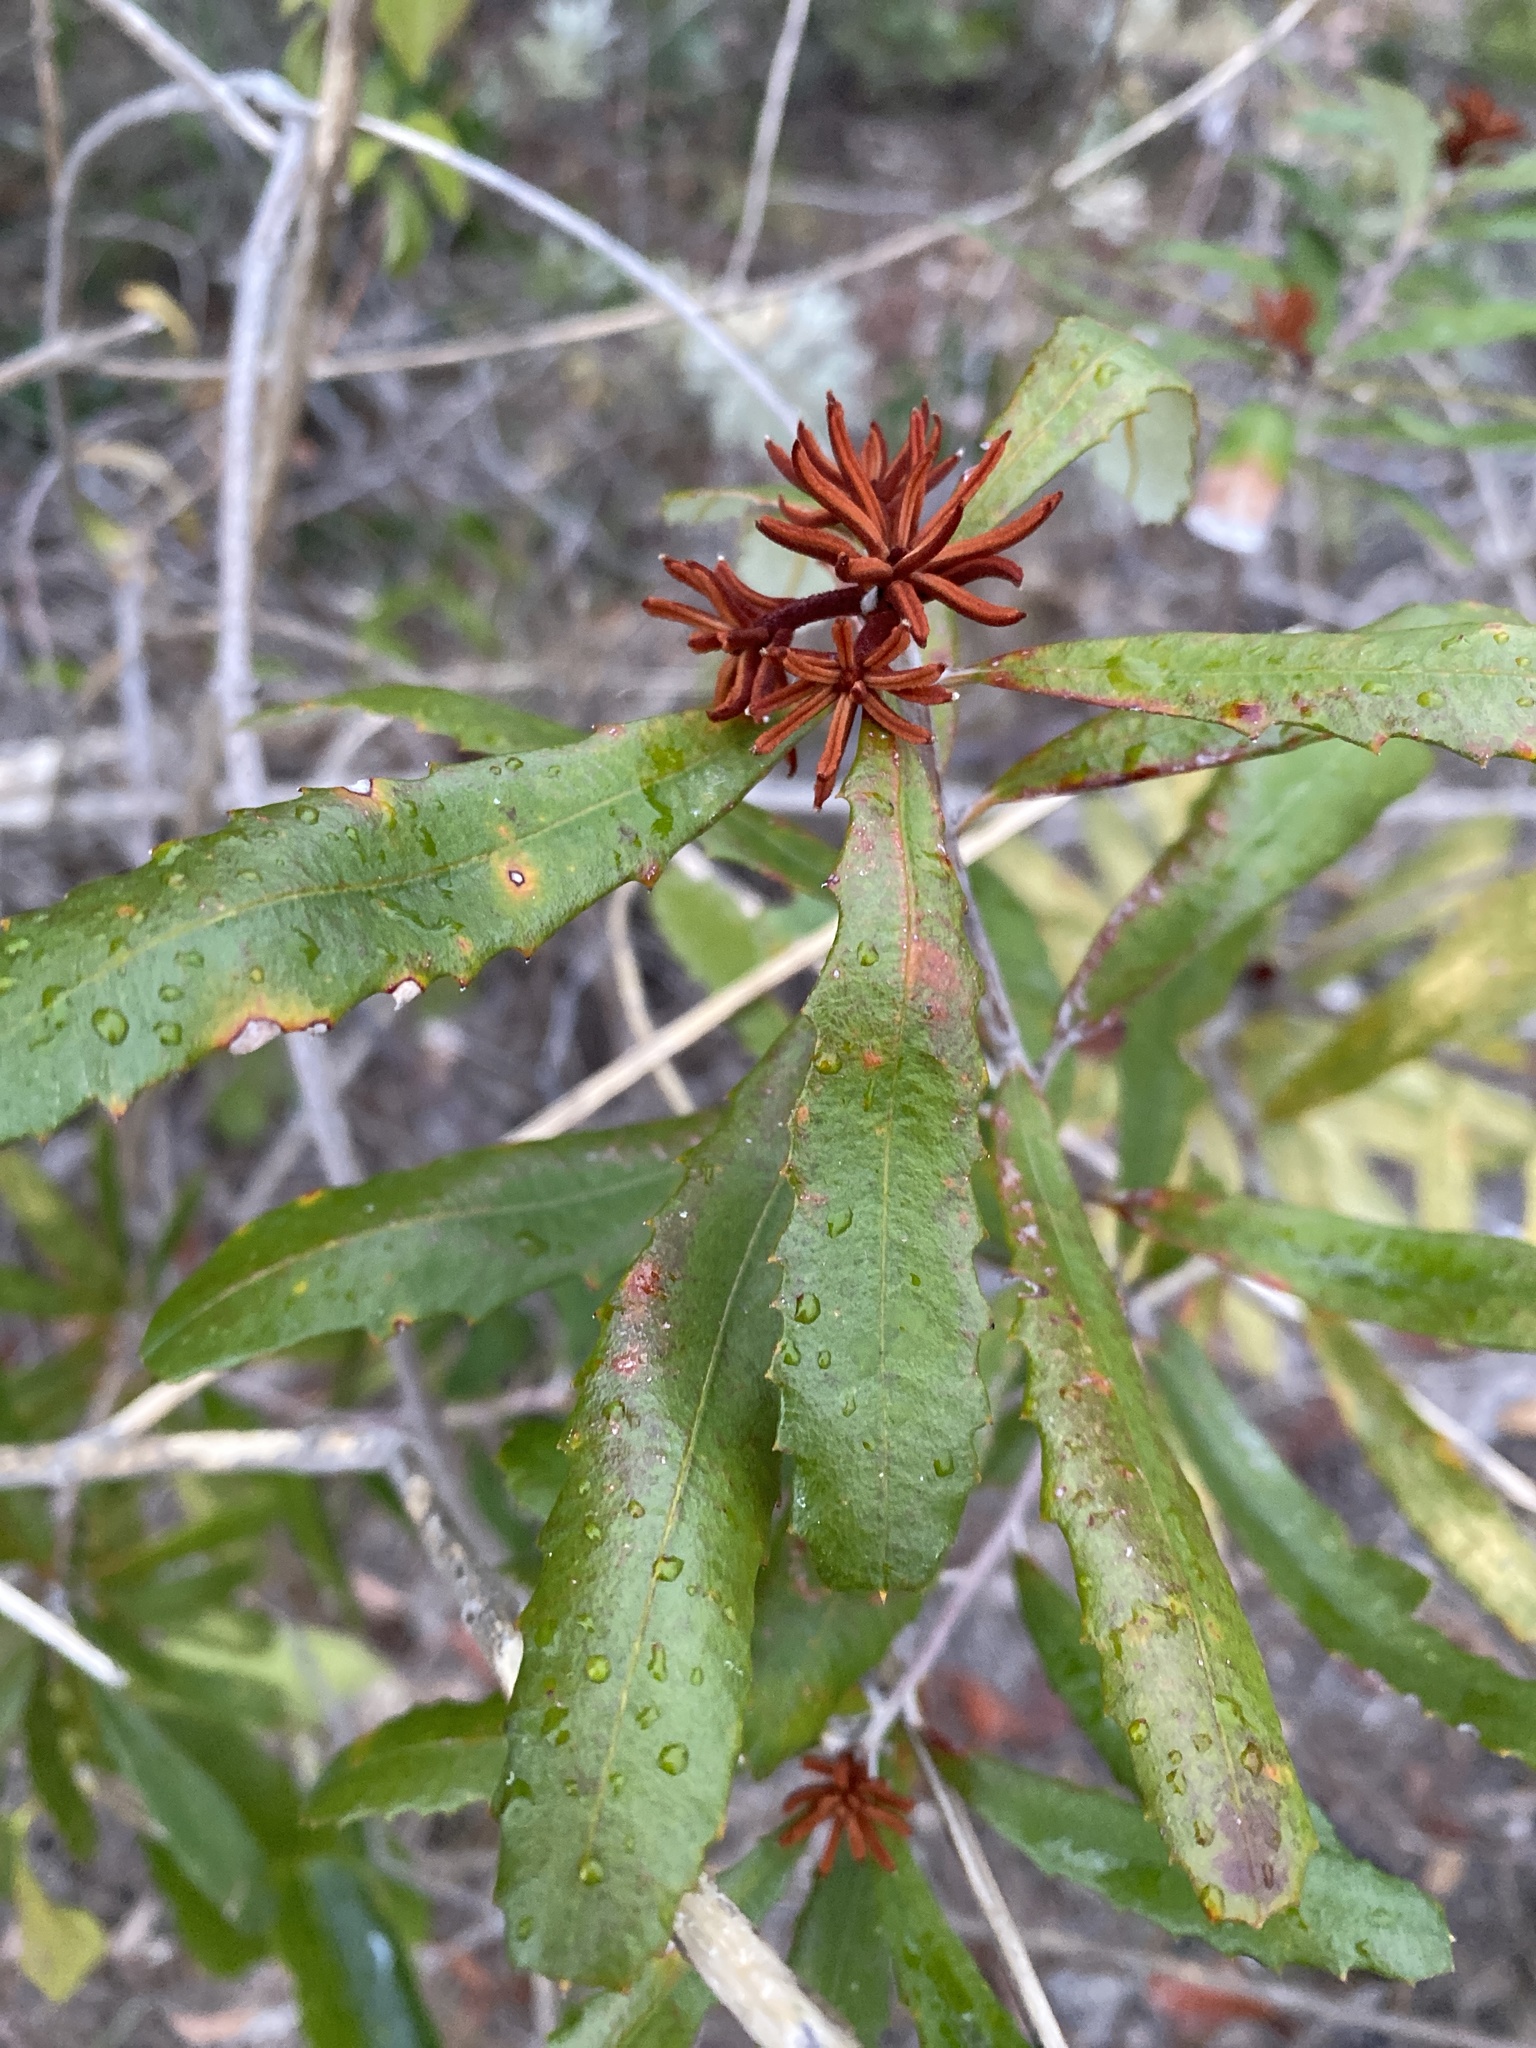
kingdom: Plantae
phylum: Tracheophyta
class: Magnoliopsida
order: Proteales
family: Proteaceae
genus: Banksia
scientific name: Banksia oblongifolia
